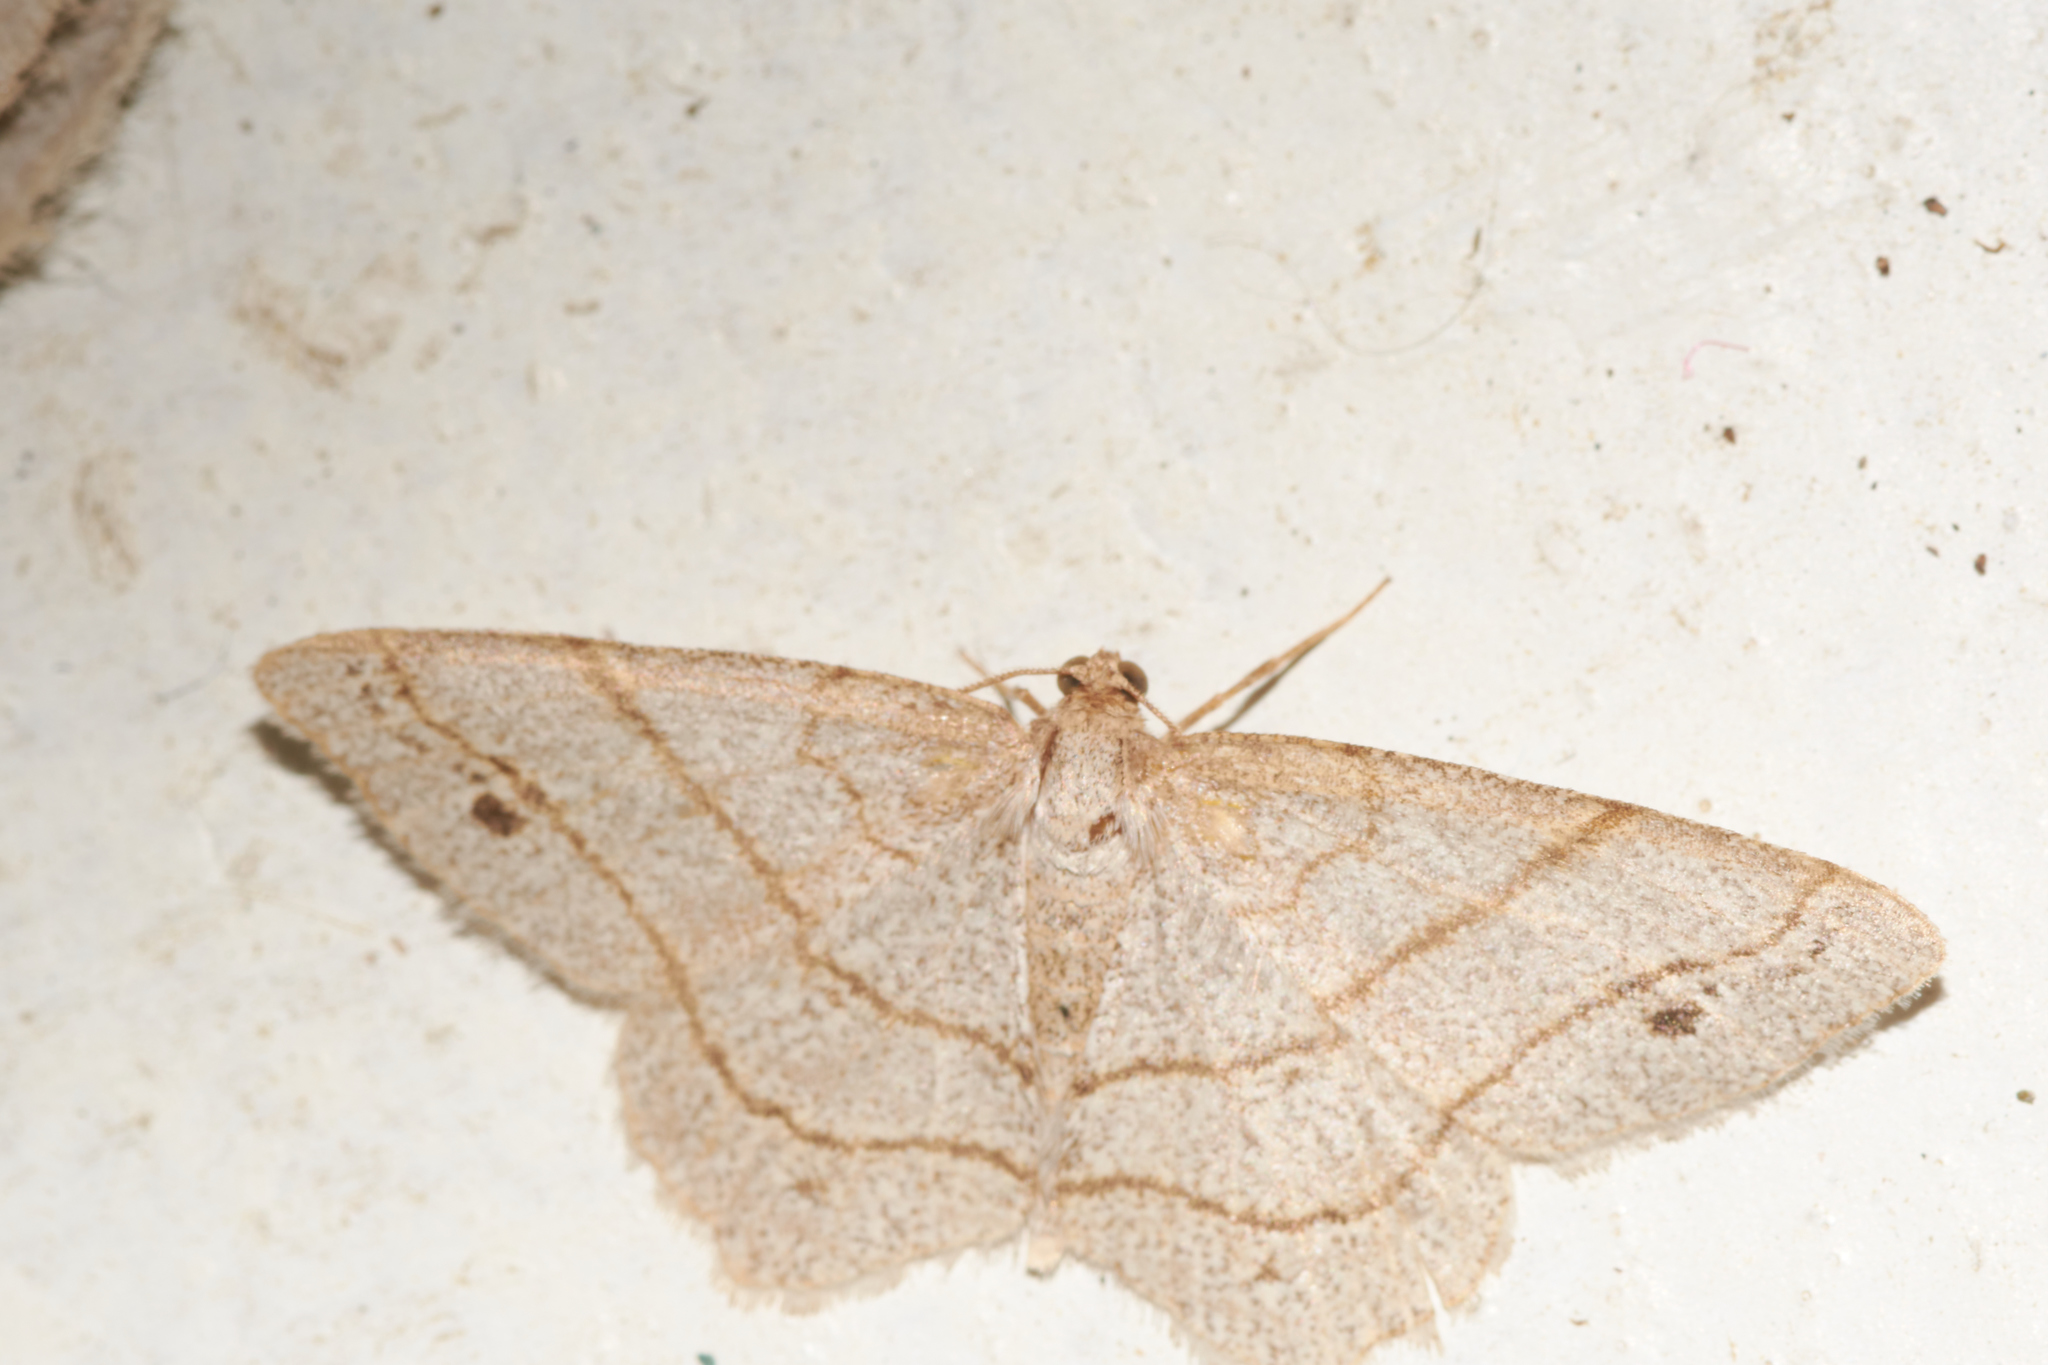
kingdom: Animalia
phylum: Arthropoda
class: Insecta
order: Lepidoptera
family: Geometridae
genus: Trigrammia
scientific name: Trigrammia quadrinotaria
